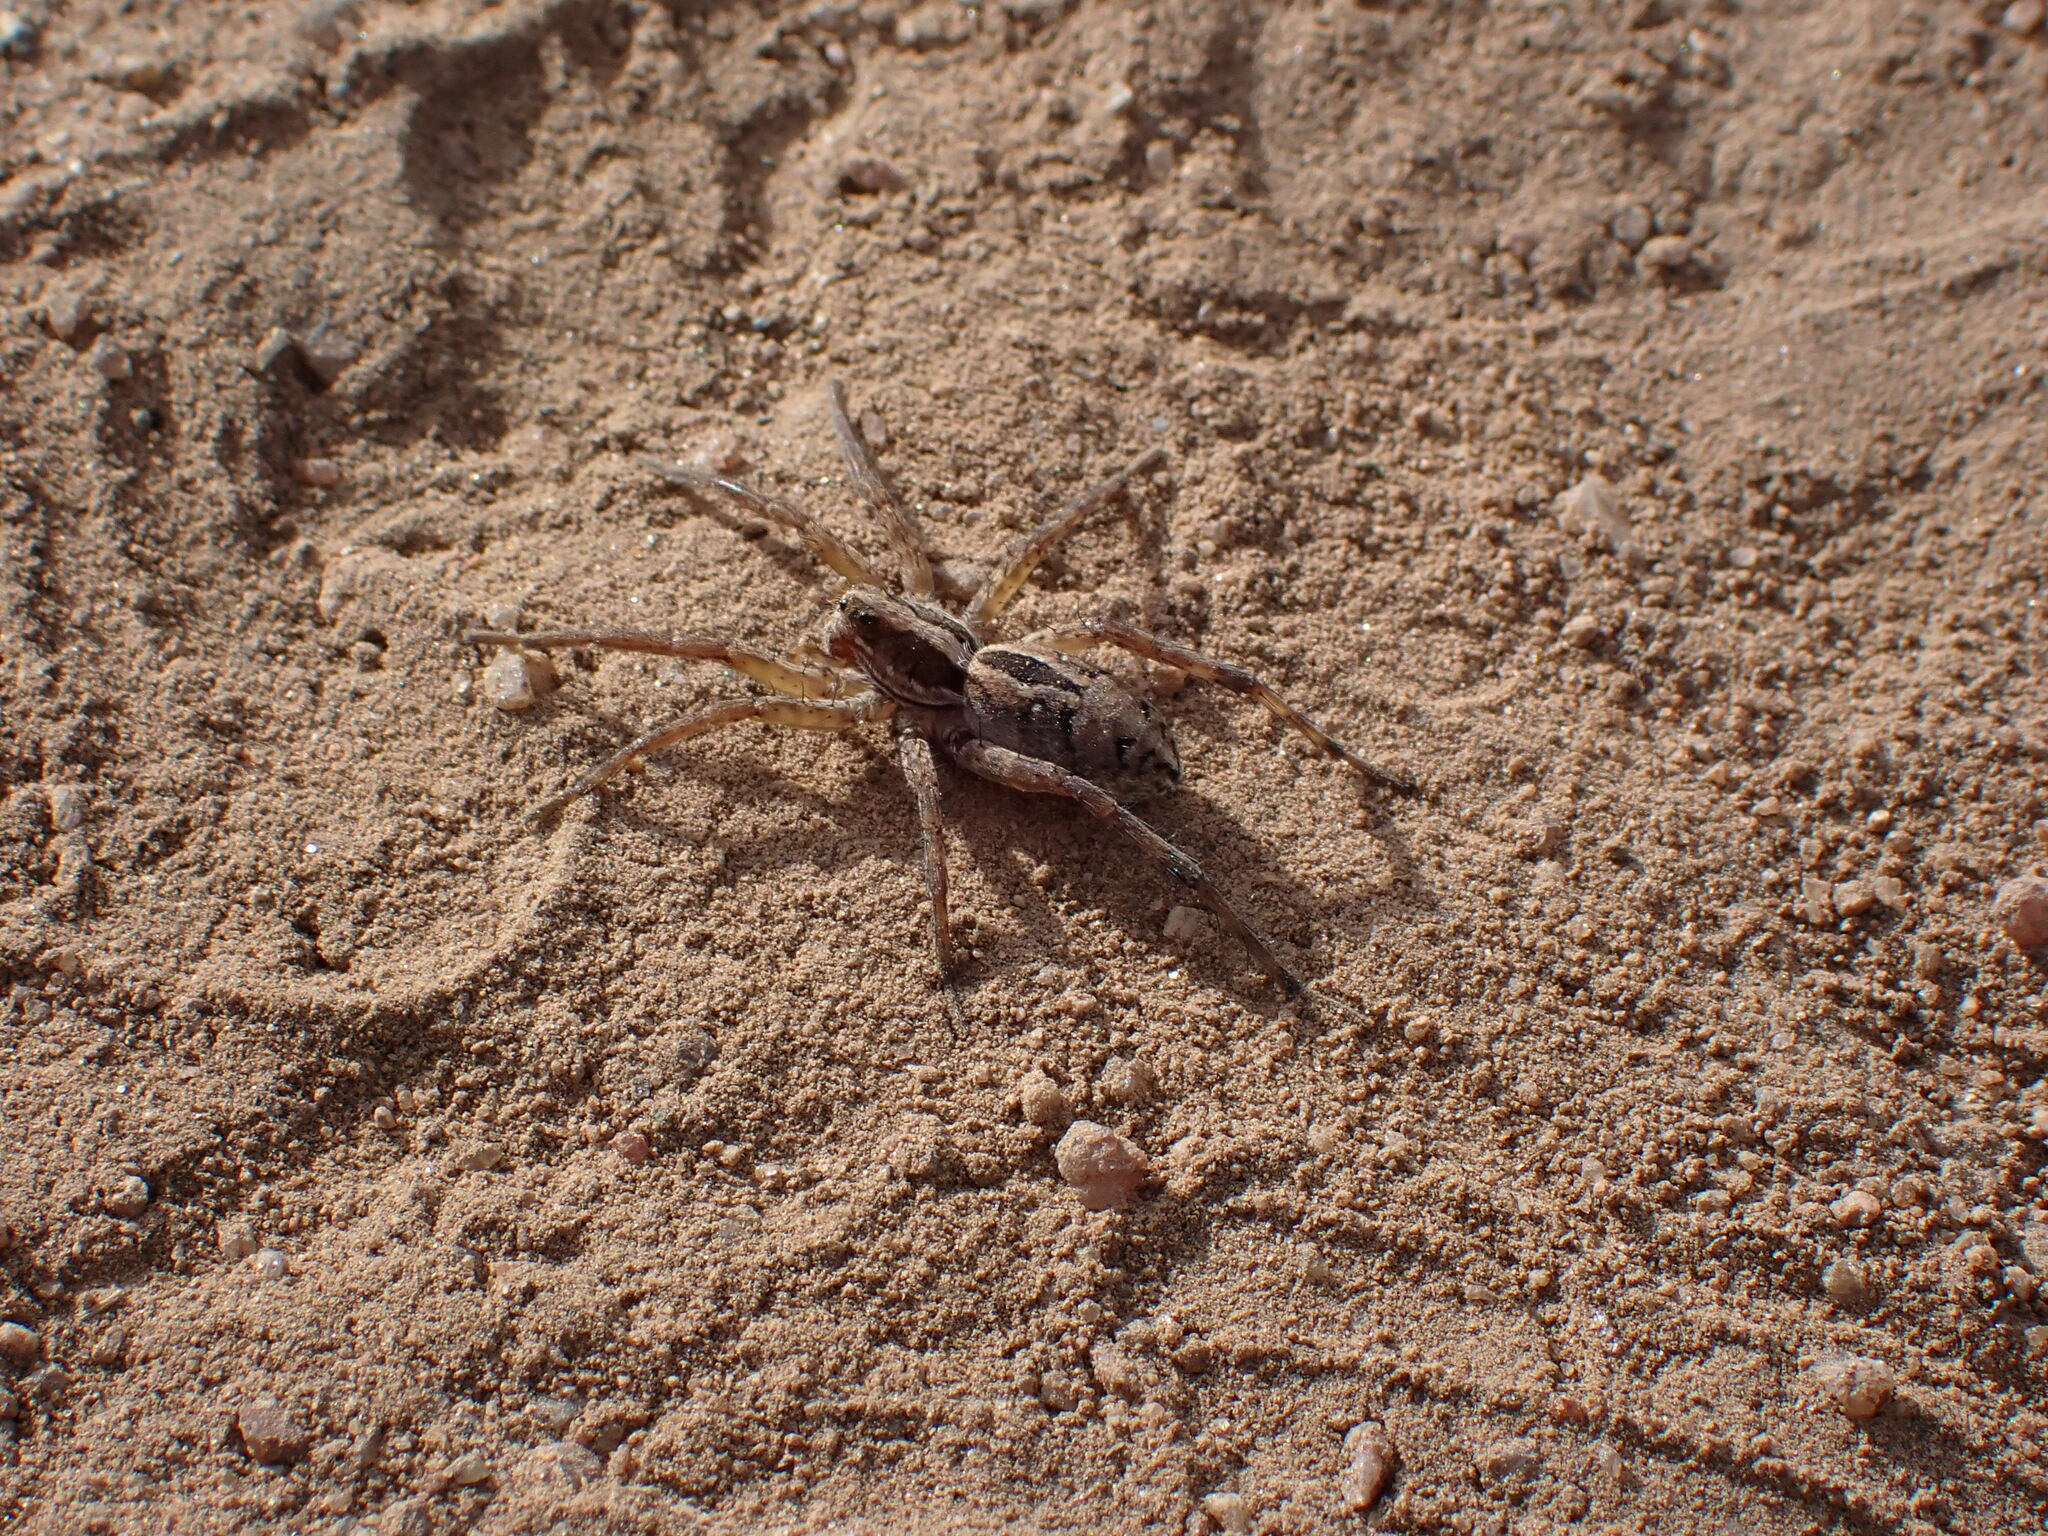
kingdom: Animalia
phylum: Arthropoda
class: Arachnida
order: Araneae
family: Lycosidae
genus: Schizocosa
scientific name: Schizocosa mccooki
